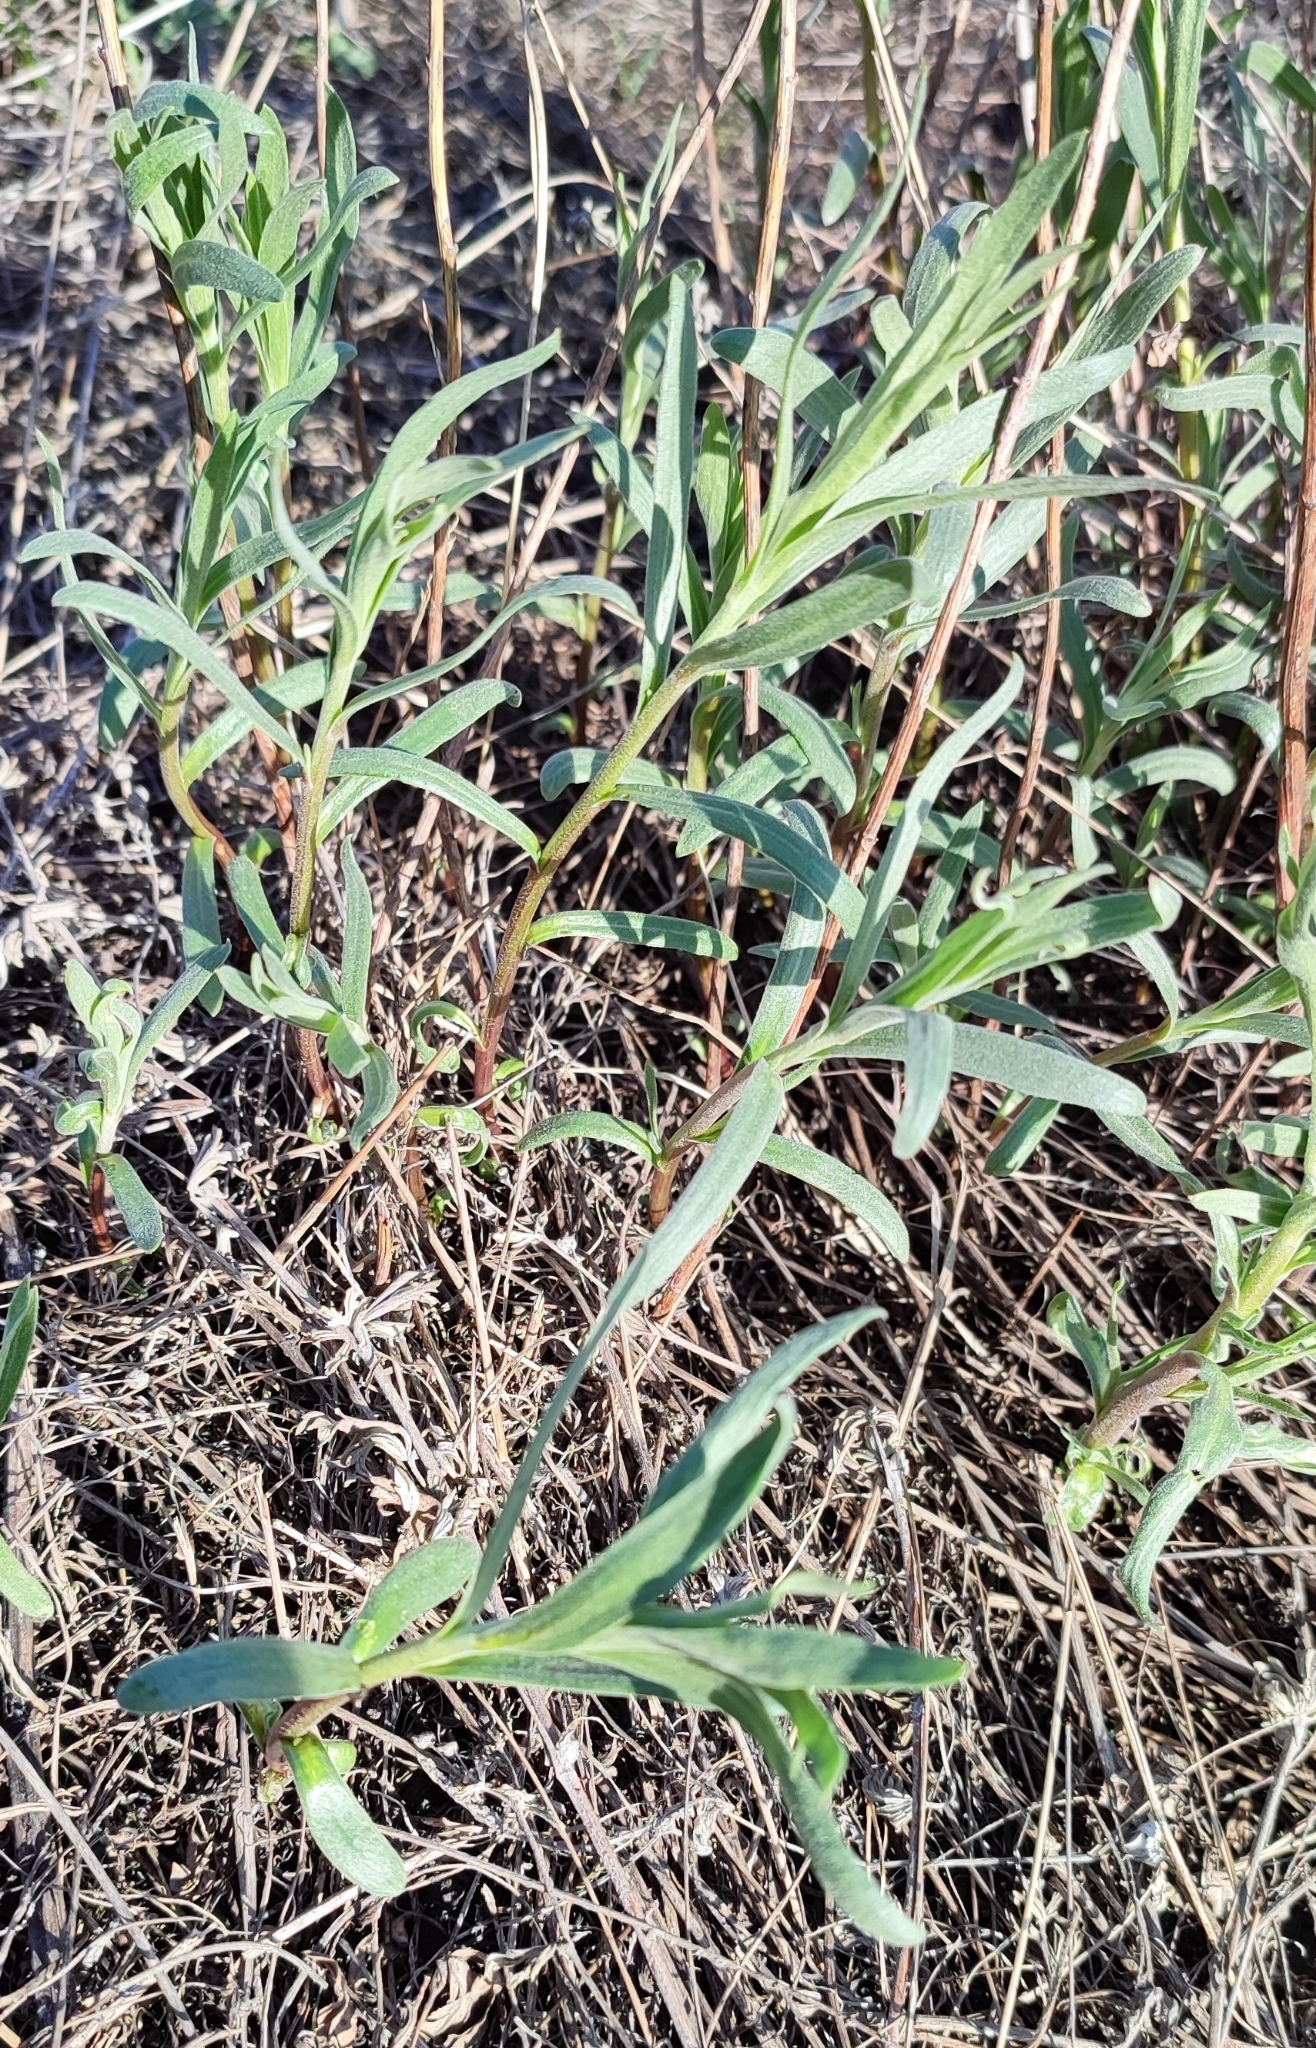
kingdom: Plantae
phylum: Tracheophyta
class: Magnoliopsida
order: Asterales
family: Asteraceae
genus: Artemisia
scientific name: Artemisia dracunculus
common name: Tarragon
